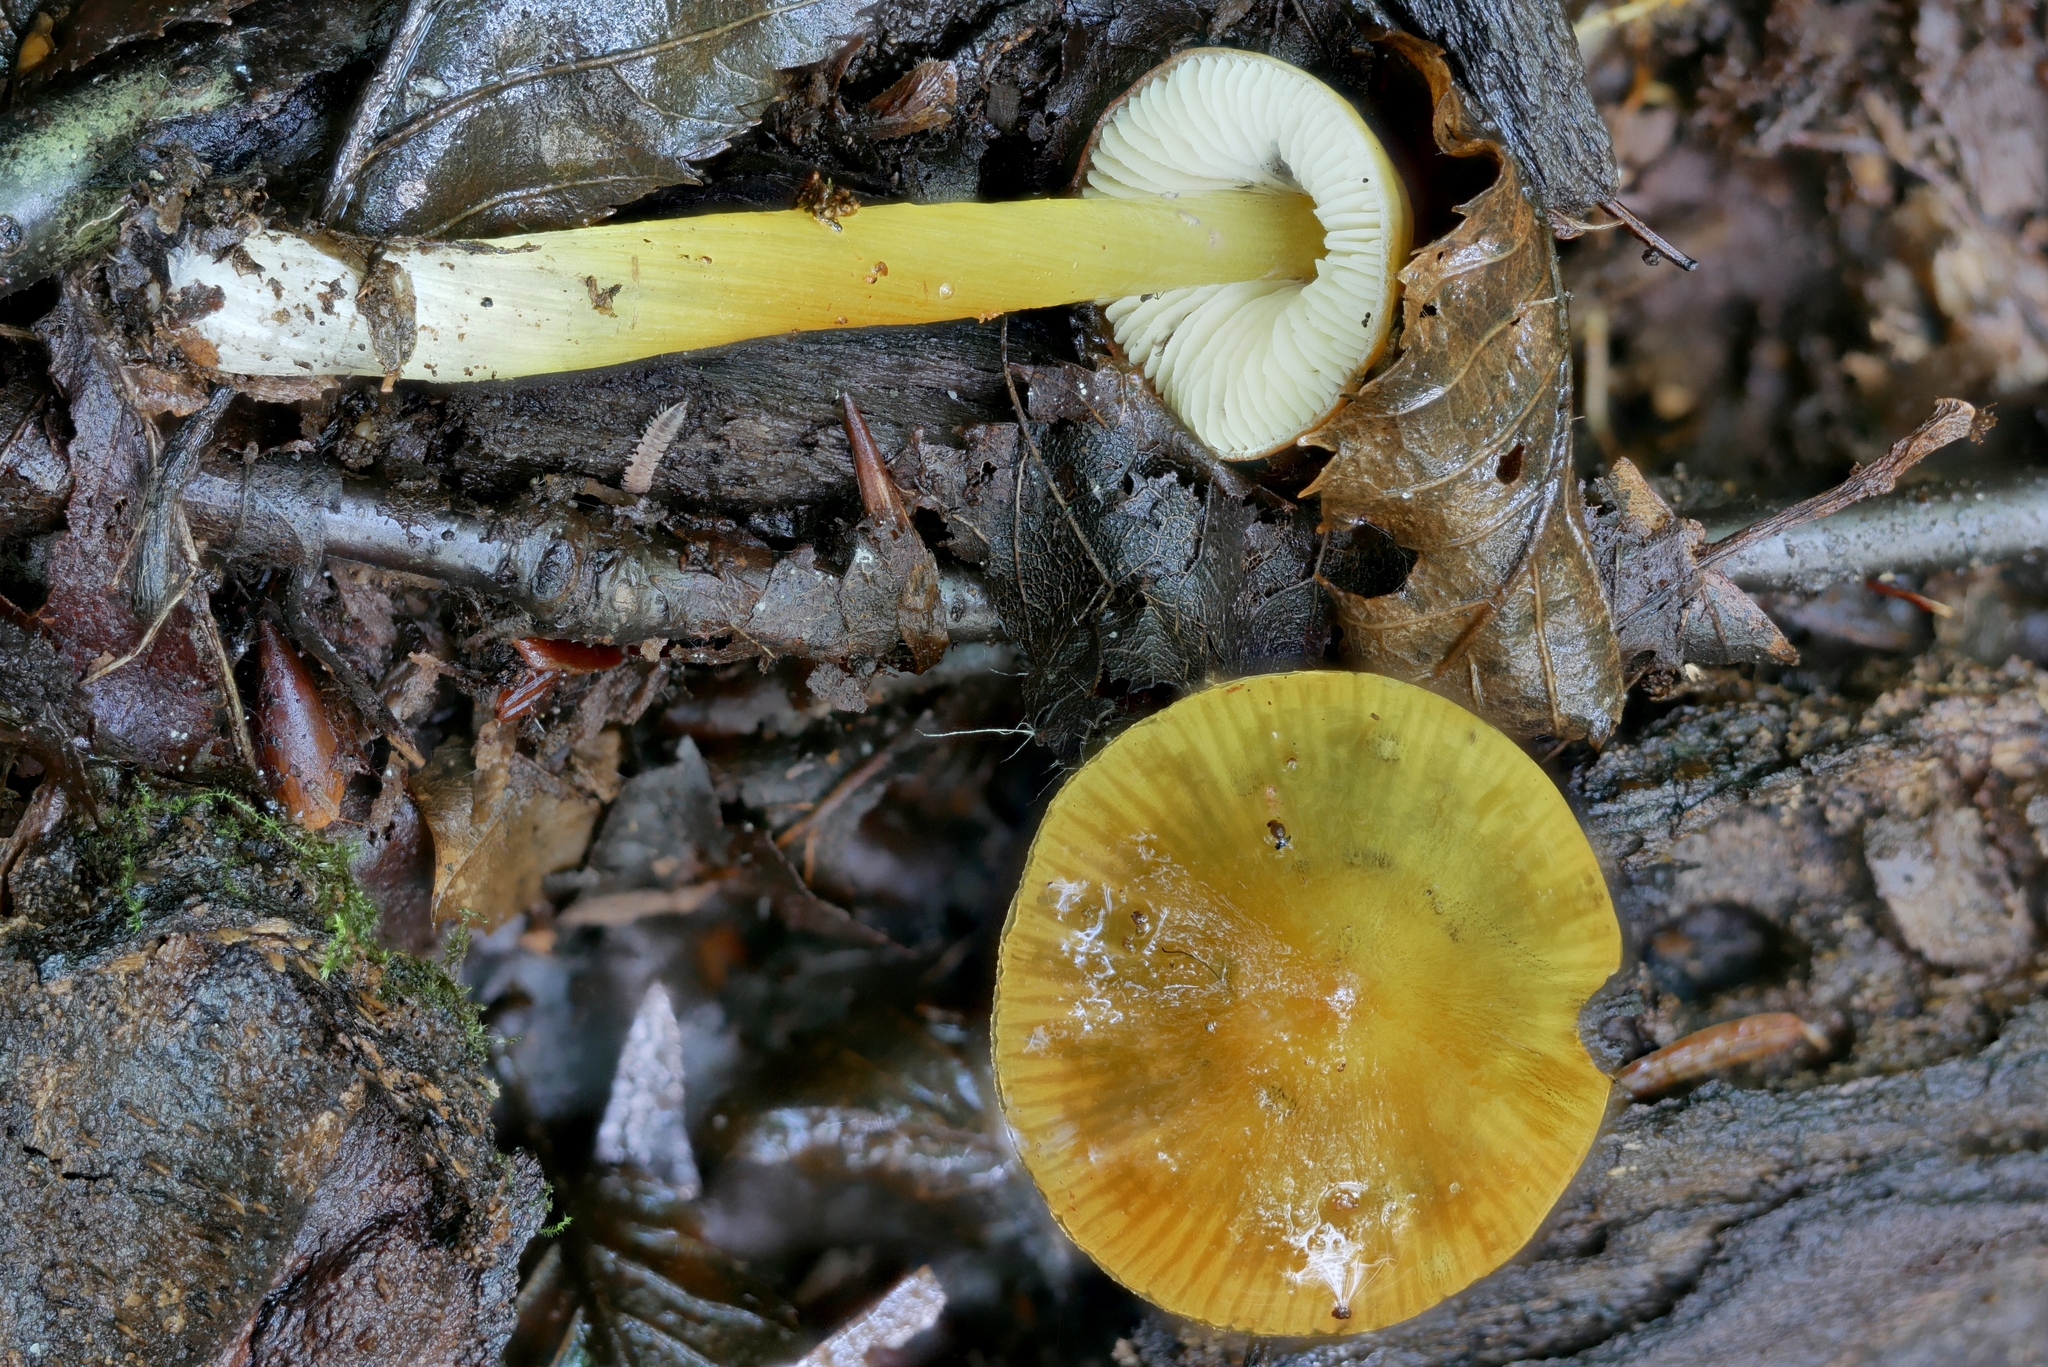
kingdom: Fungi
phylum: Basidiomycota
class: Agaricomycetes
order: Agaricales
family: Hygrophoraceae
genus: Hygrocybe
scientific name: Hygrocybe conica
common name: Blackening wax-cap
